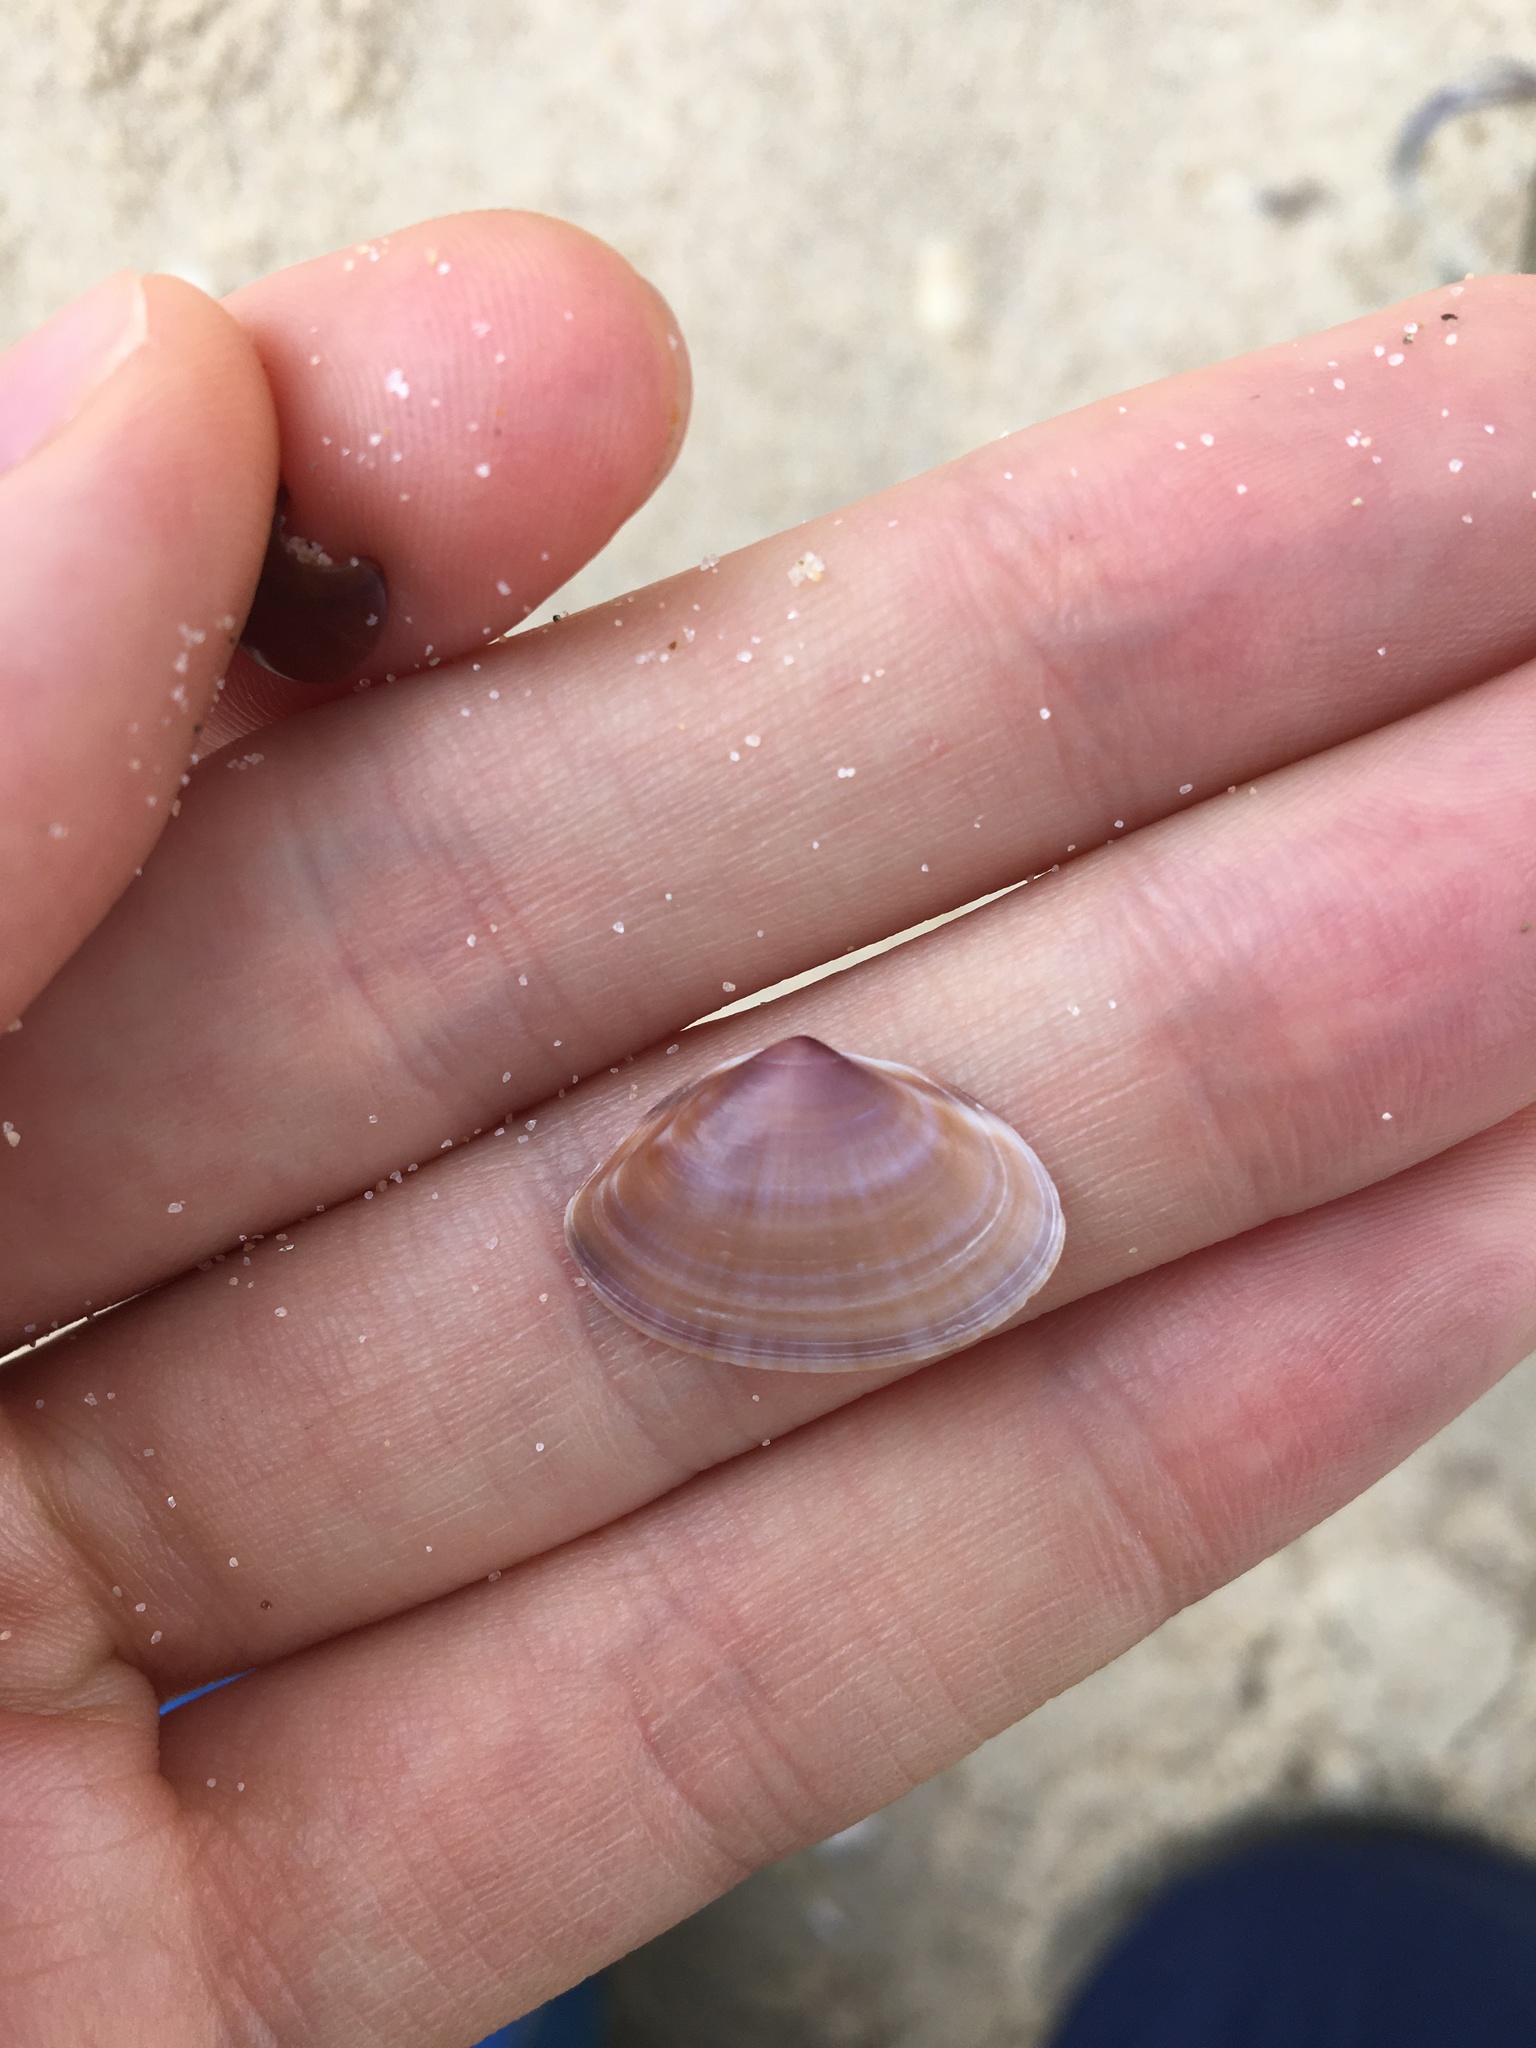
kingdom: Animalia
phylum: Mollusca
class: Bivalvia
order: Venerida
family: Mactridae
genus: Mactra
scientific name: Mactra pusilla
